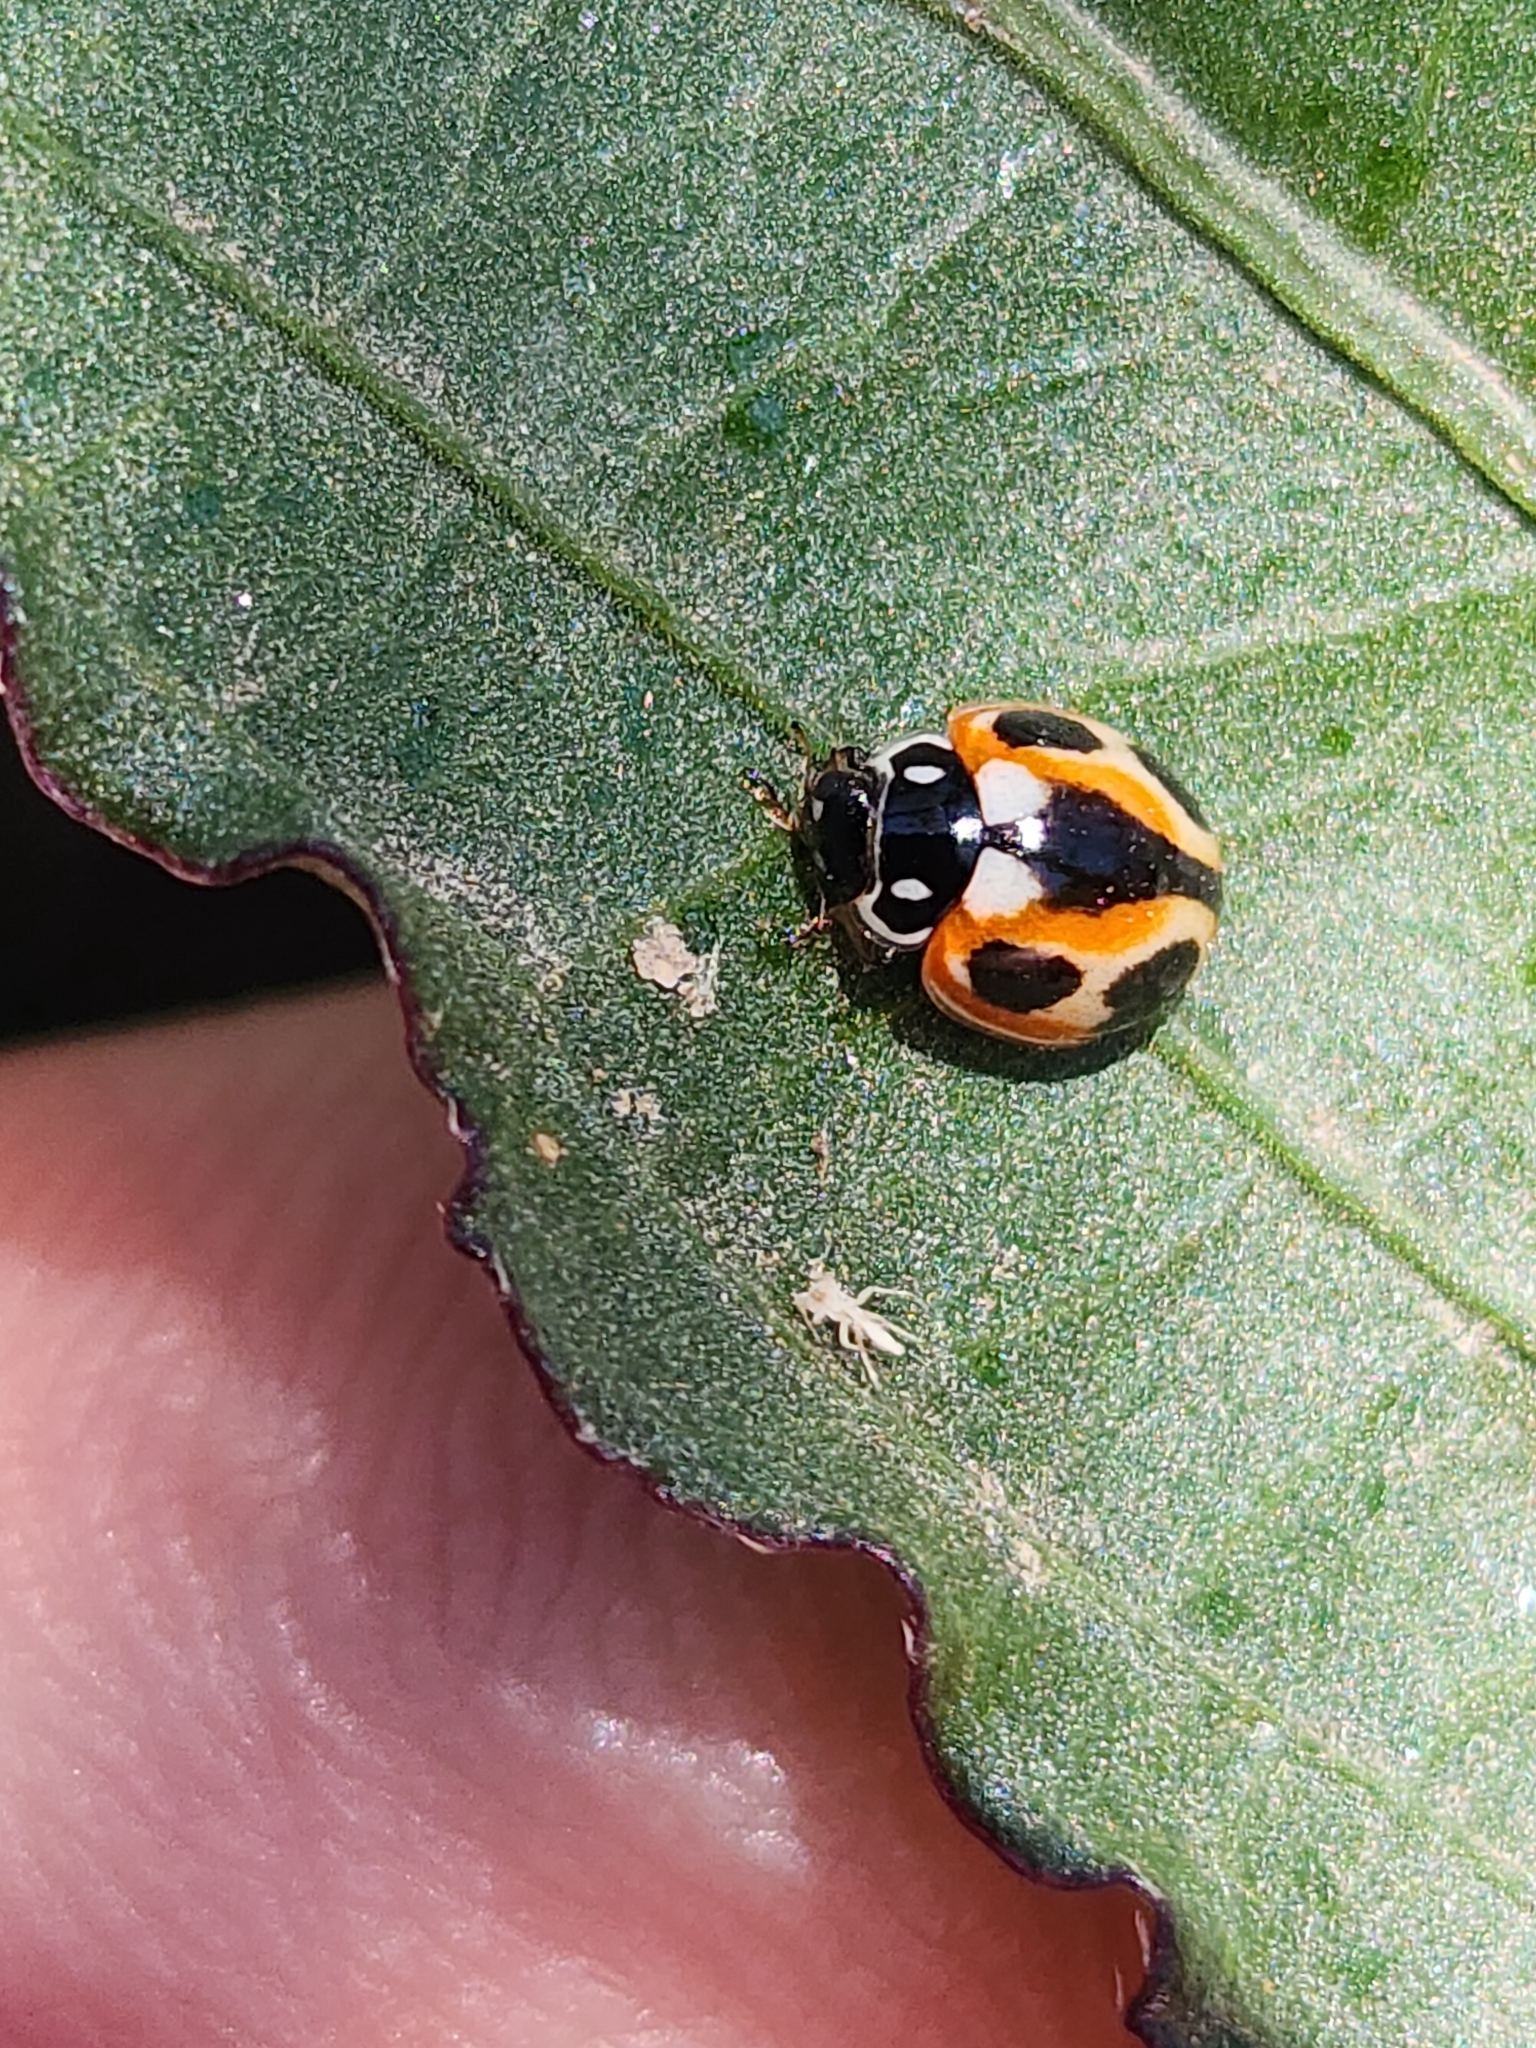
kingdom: Animalia
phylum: Arthropoda
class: Insecta
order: Coleoptera
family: Coccinellidae
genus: Cycloneda
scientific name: Cycloneda ancoralis
